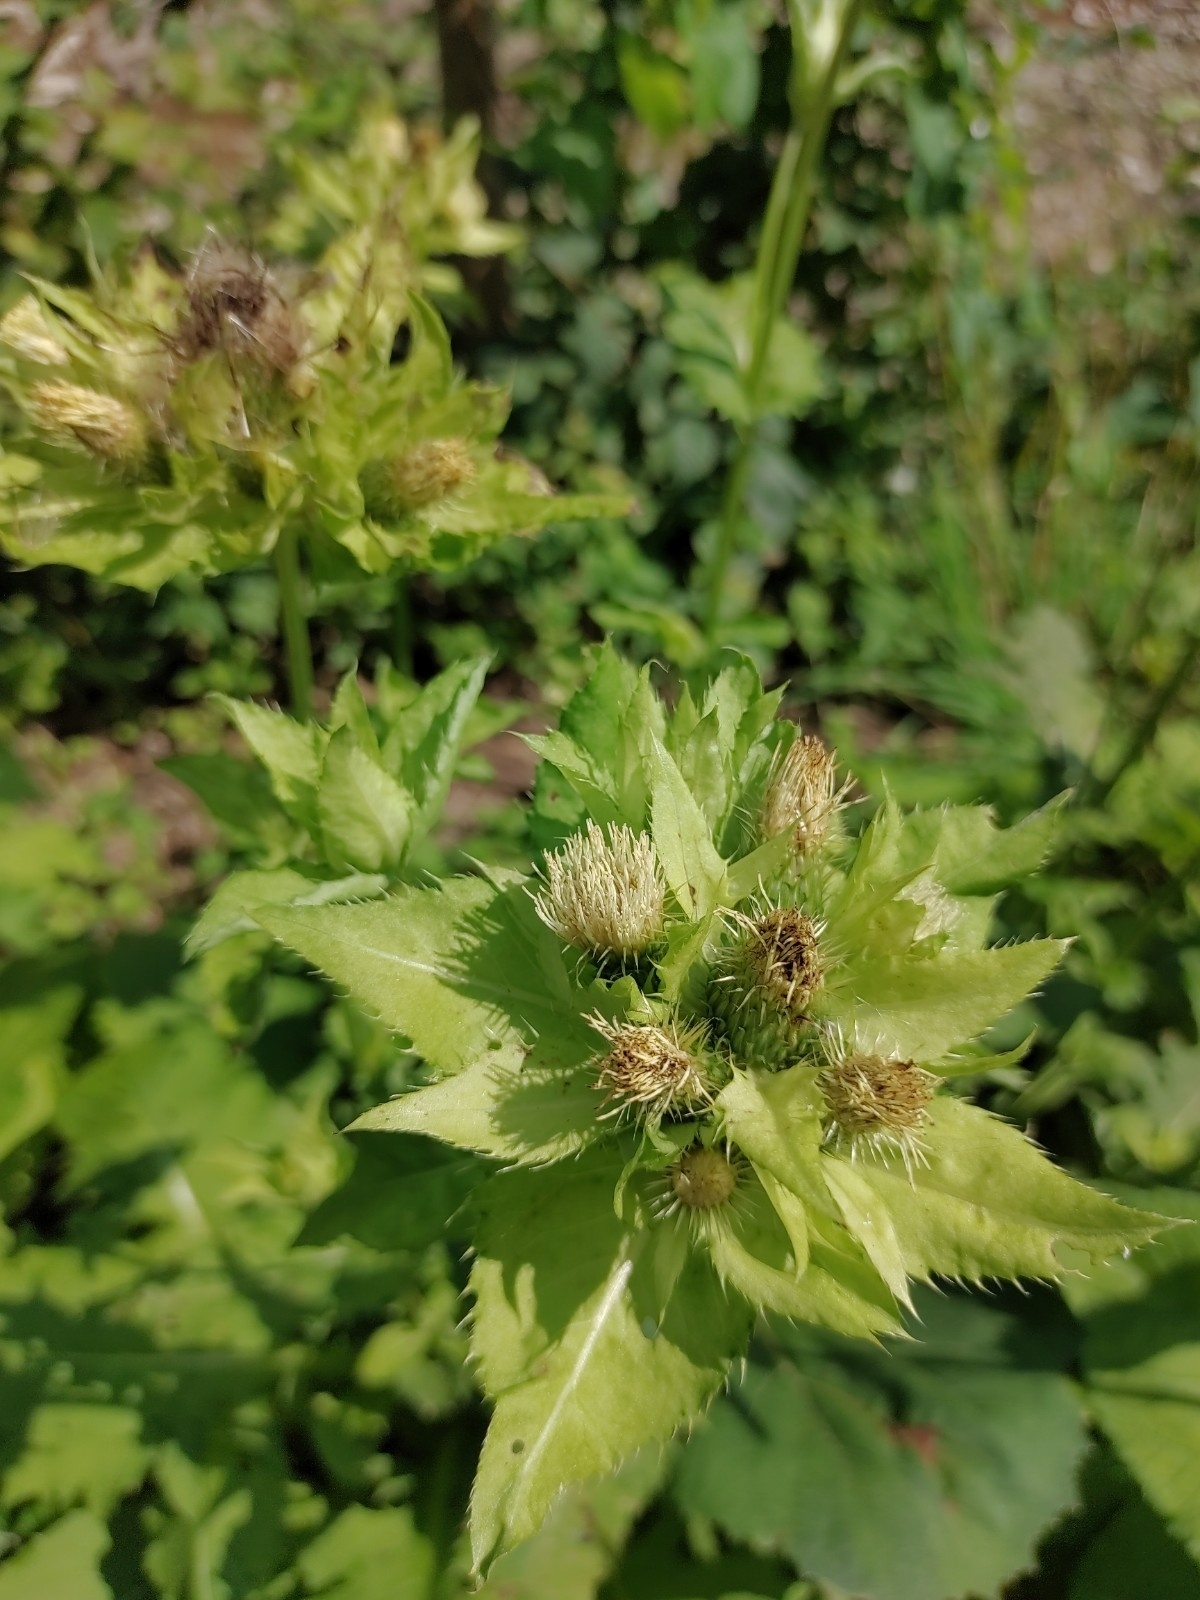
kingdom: Plantae
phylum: Tracheophyta
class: Magnoliopsida
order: Asterales
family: Asteraceae
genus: Cirsium
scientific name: Cirsium oleraceum
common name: Cabbage thistle
